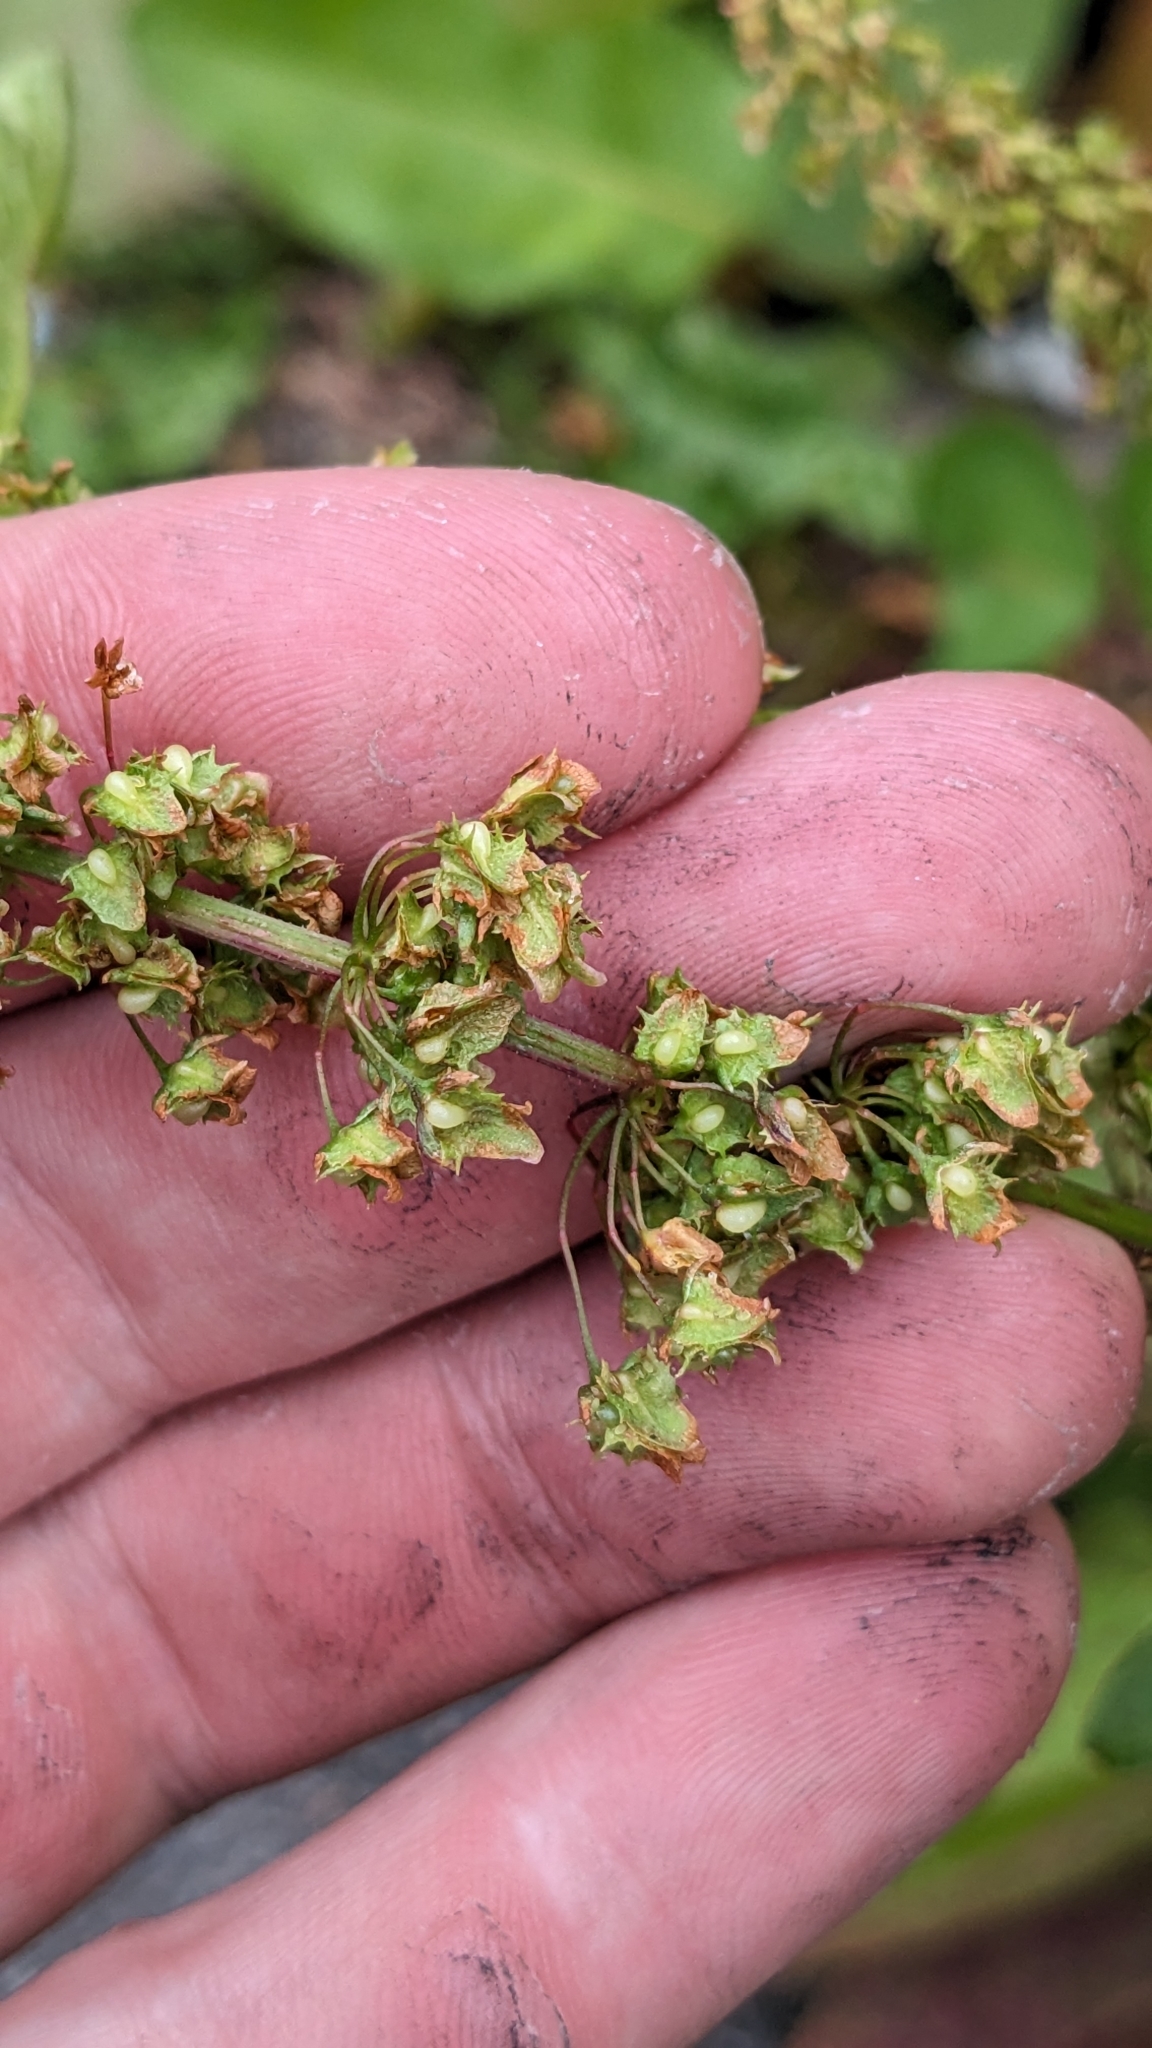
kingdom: Plantae
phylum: Tracheophyta
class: Magnoliopsida
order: Caryophyllales
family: Polygonaceae
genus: Rumex
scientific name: Rumex obtusifolius
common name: Bitter dock
